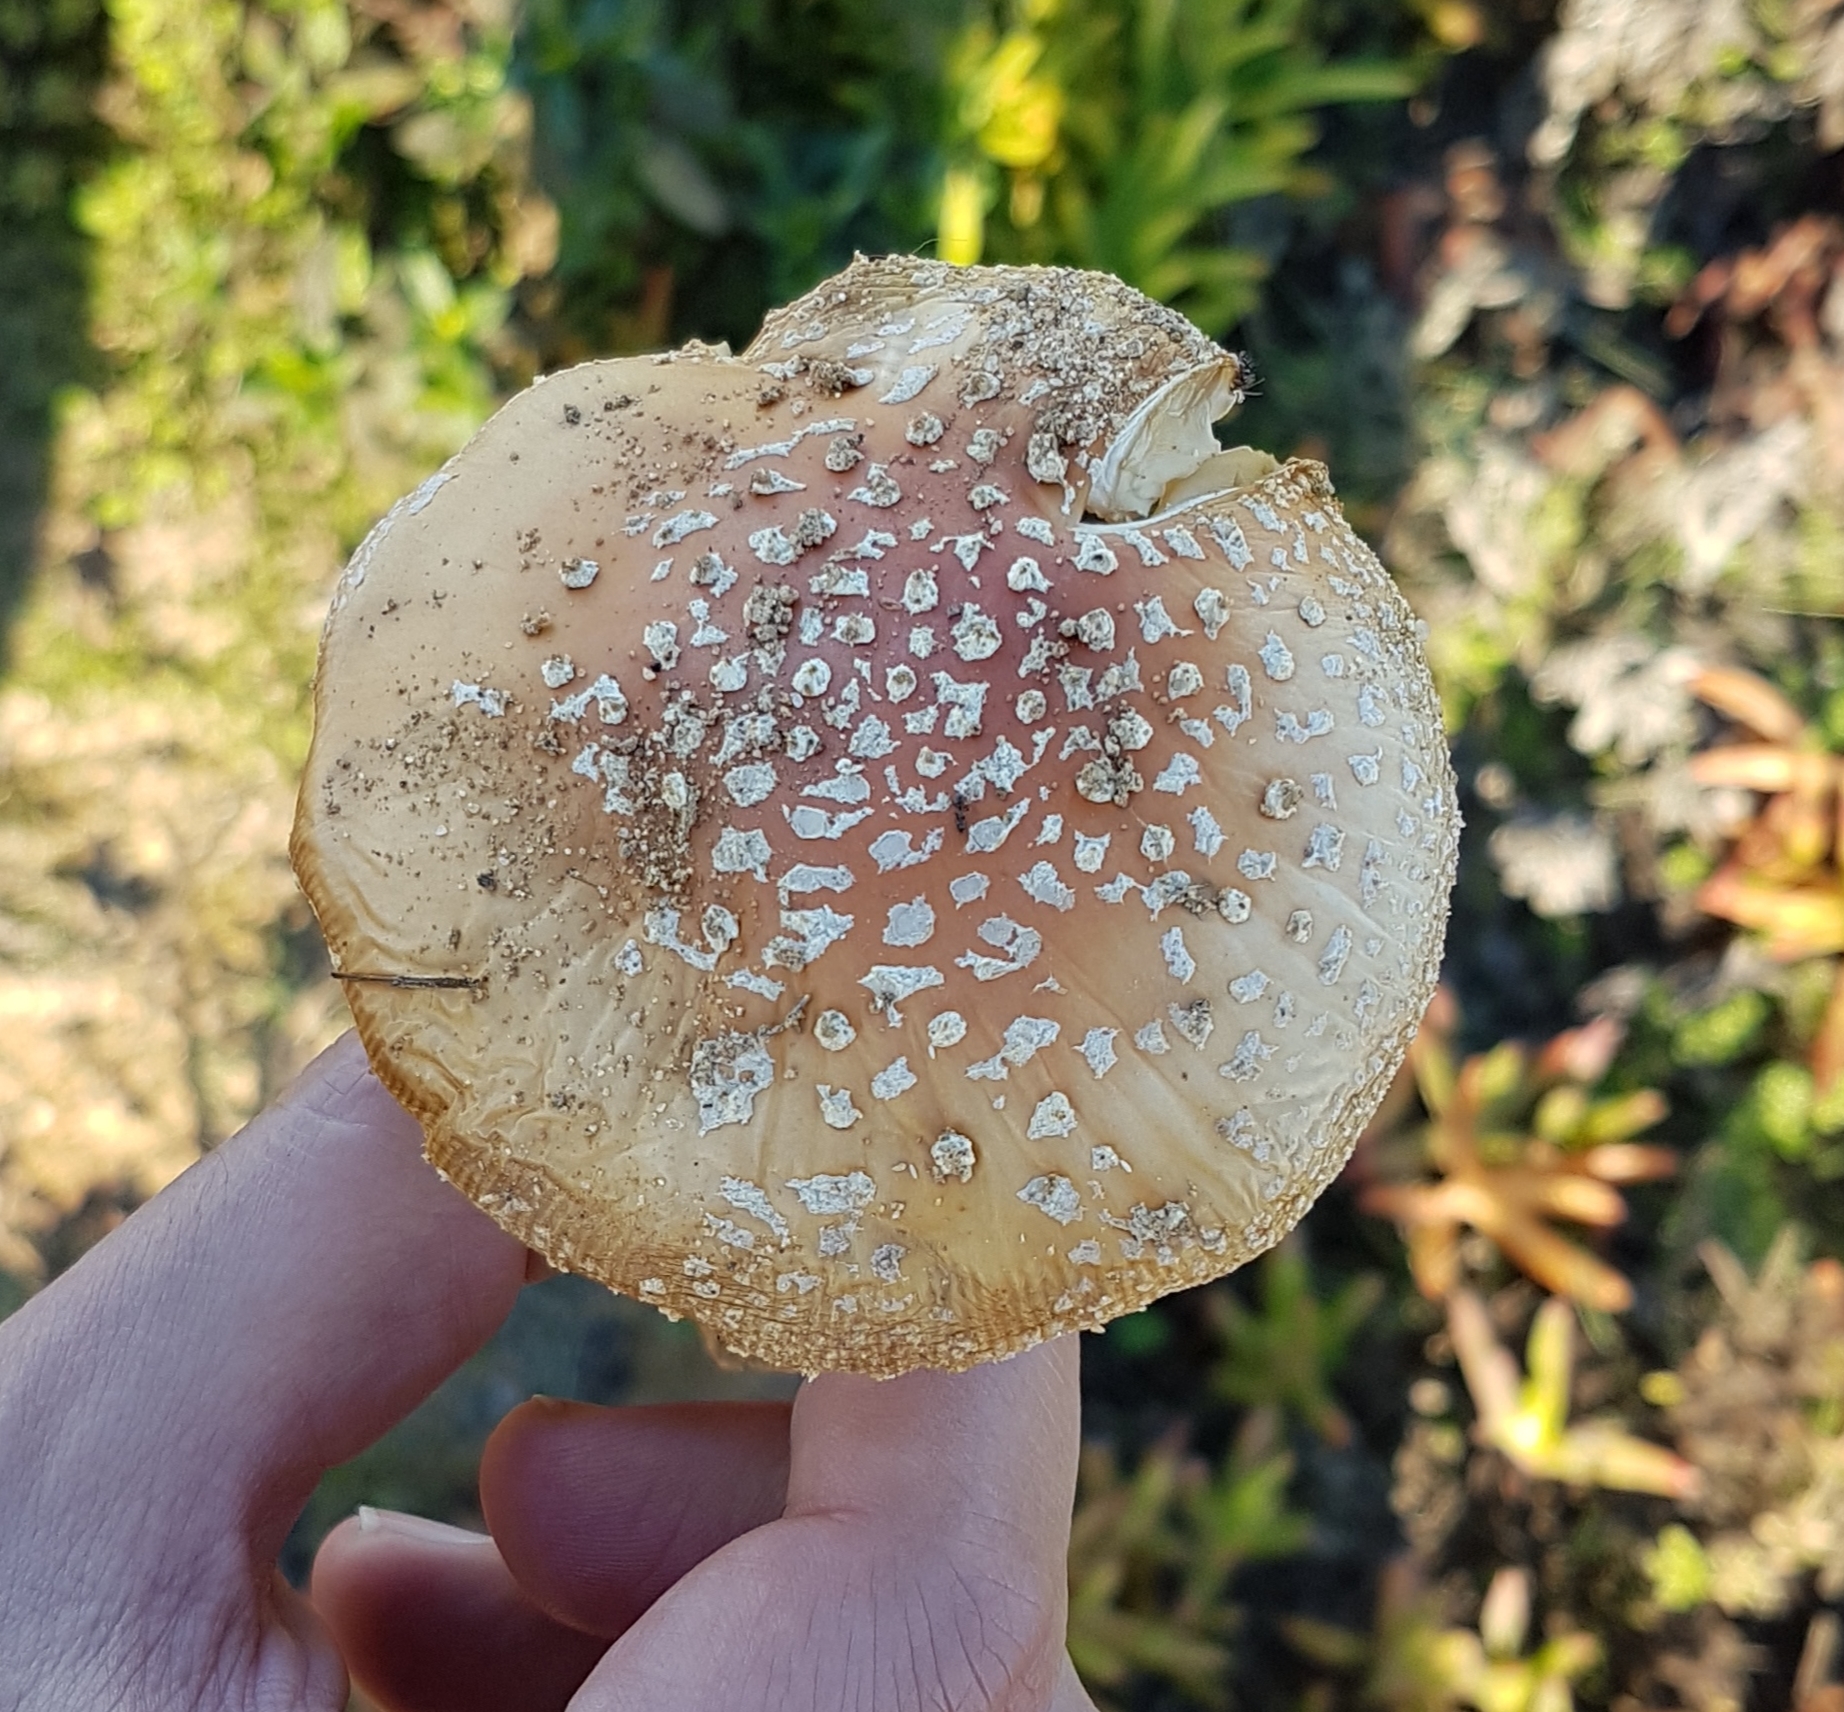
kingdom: Fungi
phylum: Basidiomycota
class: Agaricomycetes
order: Agaricales
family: Amanitaceae
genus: Amanita
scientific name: Amanita muscaria
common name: Fly agaric
